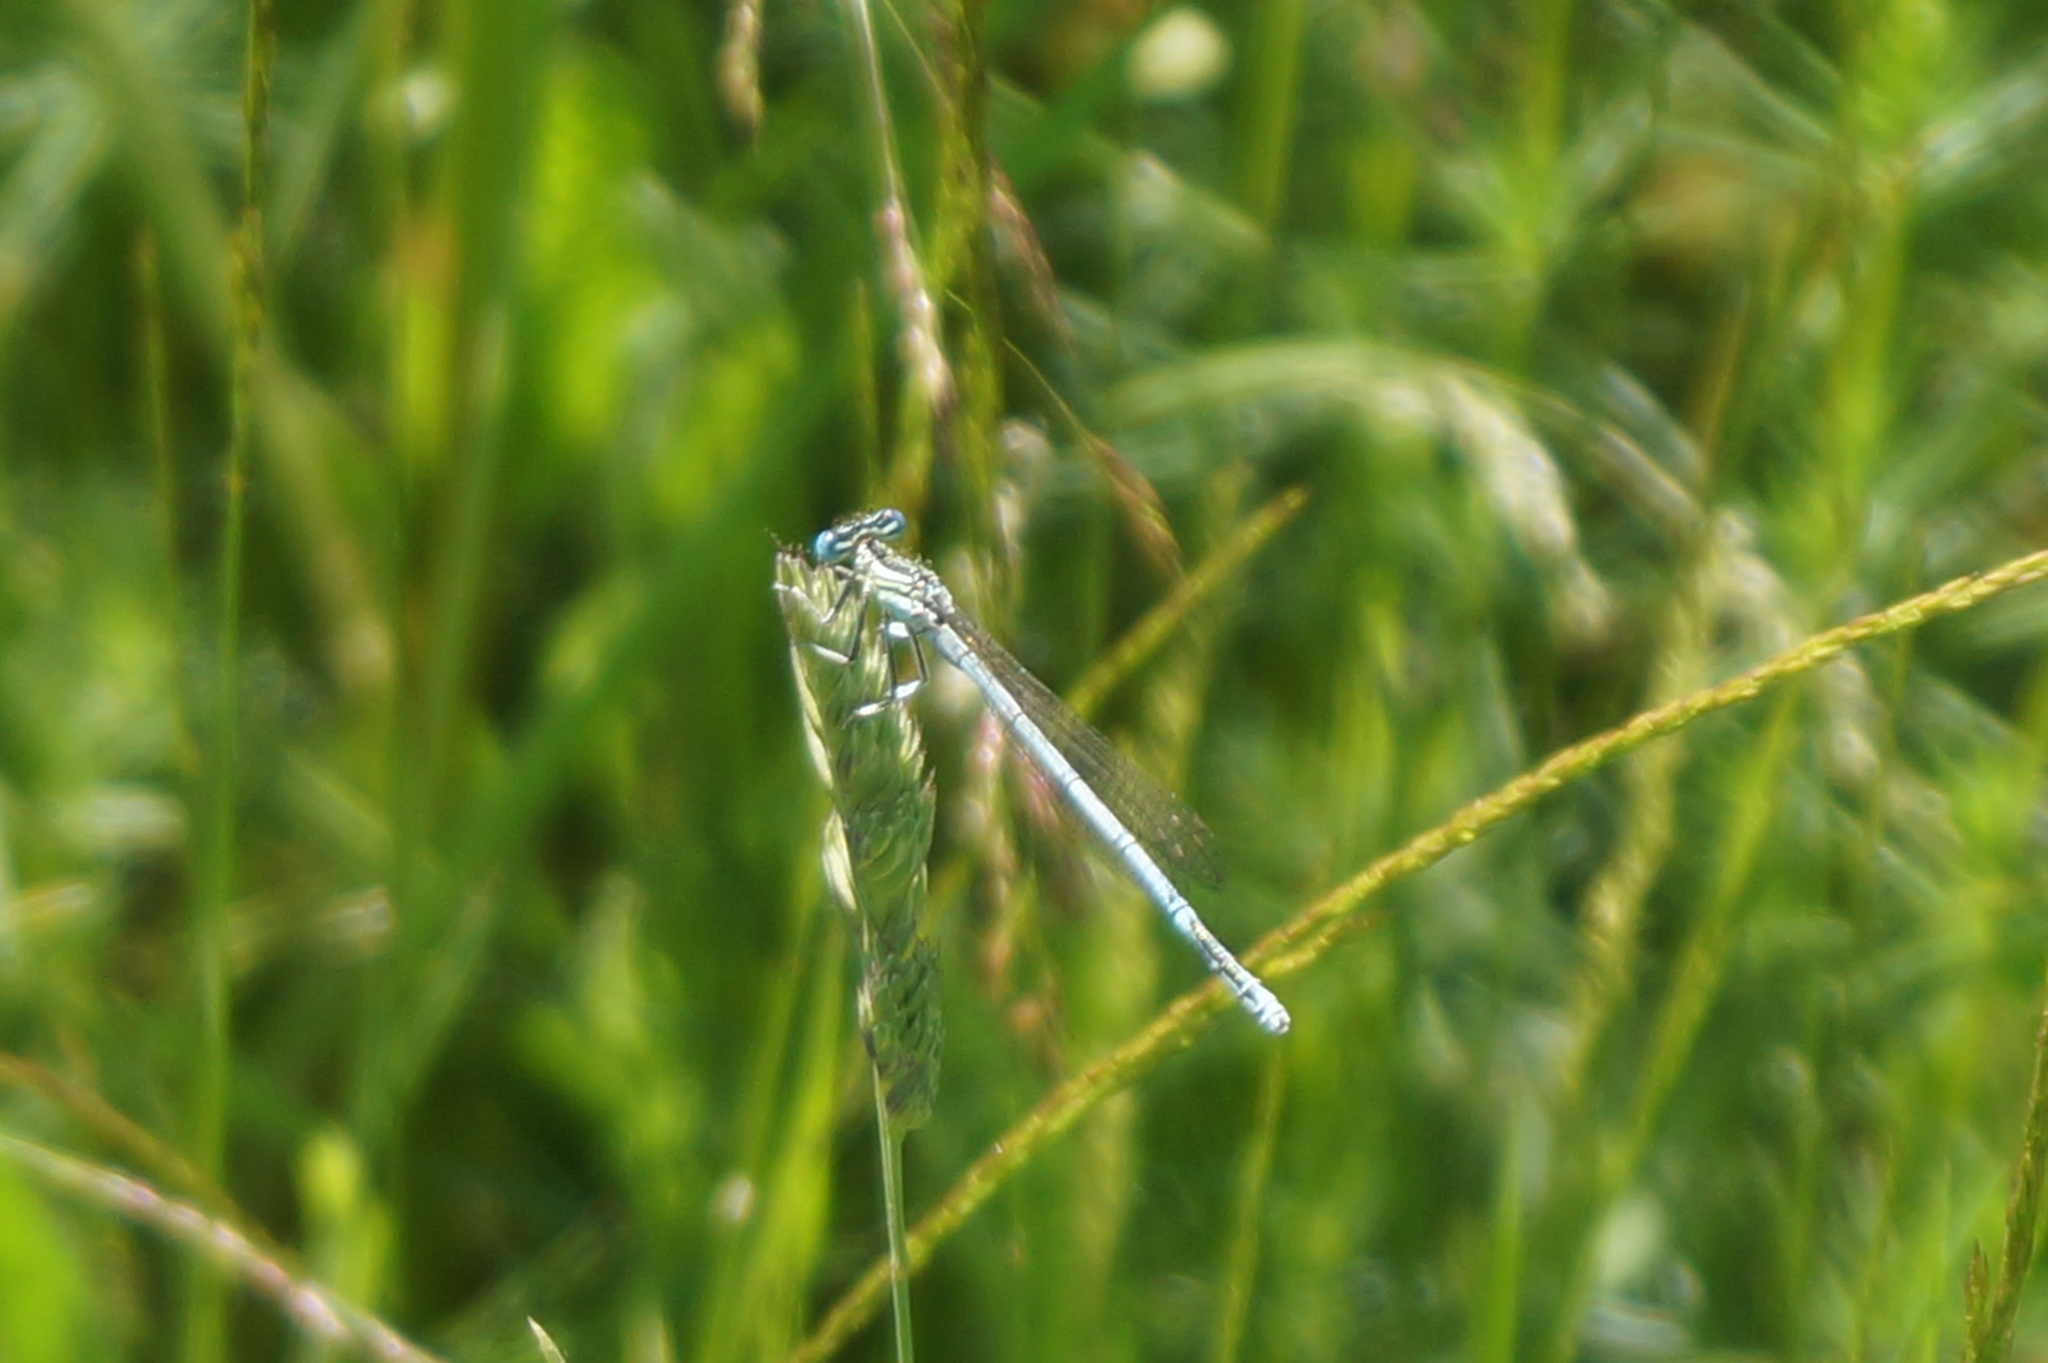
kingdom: Animalia
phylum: Arthropoda
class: Insecta
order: Odonata
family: Platycnemididae
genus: Platycnemis
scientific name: Platycnemis pennipes
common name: White-legged damselfly
